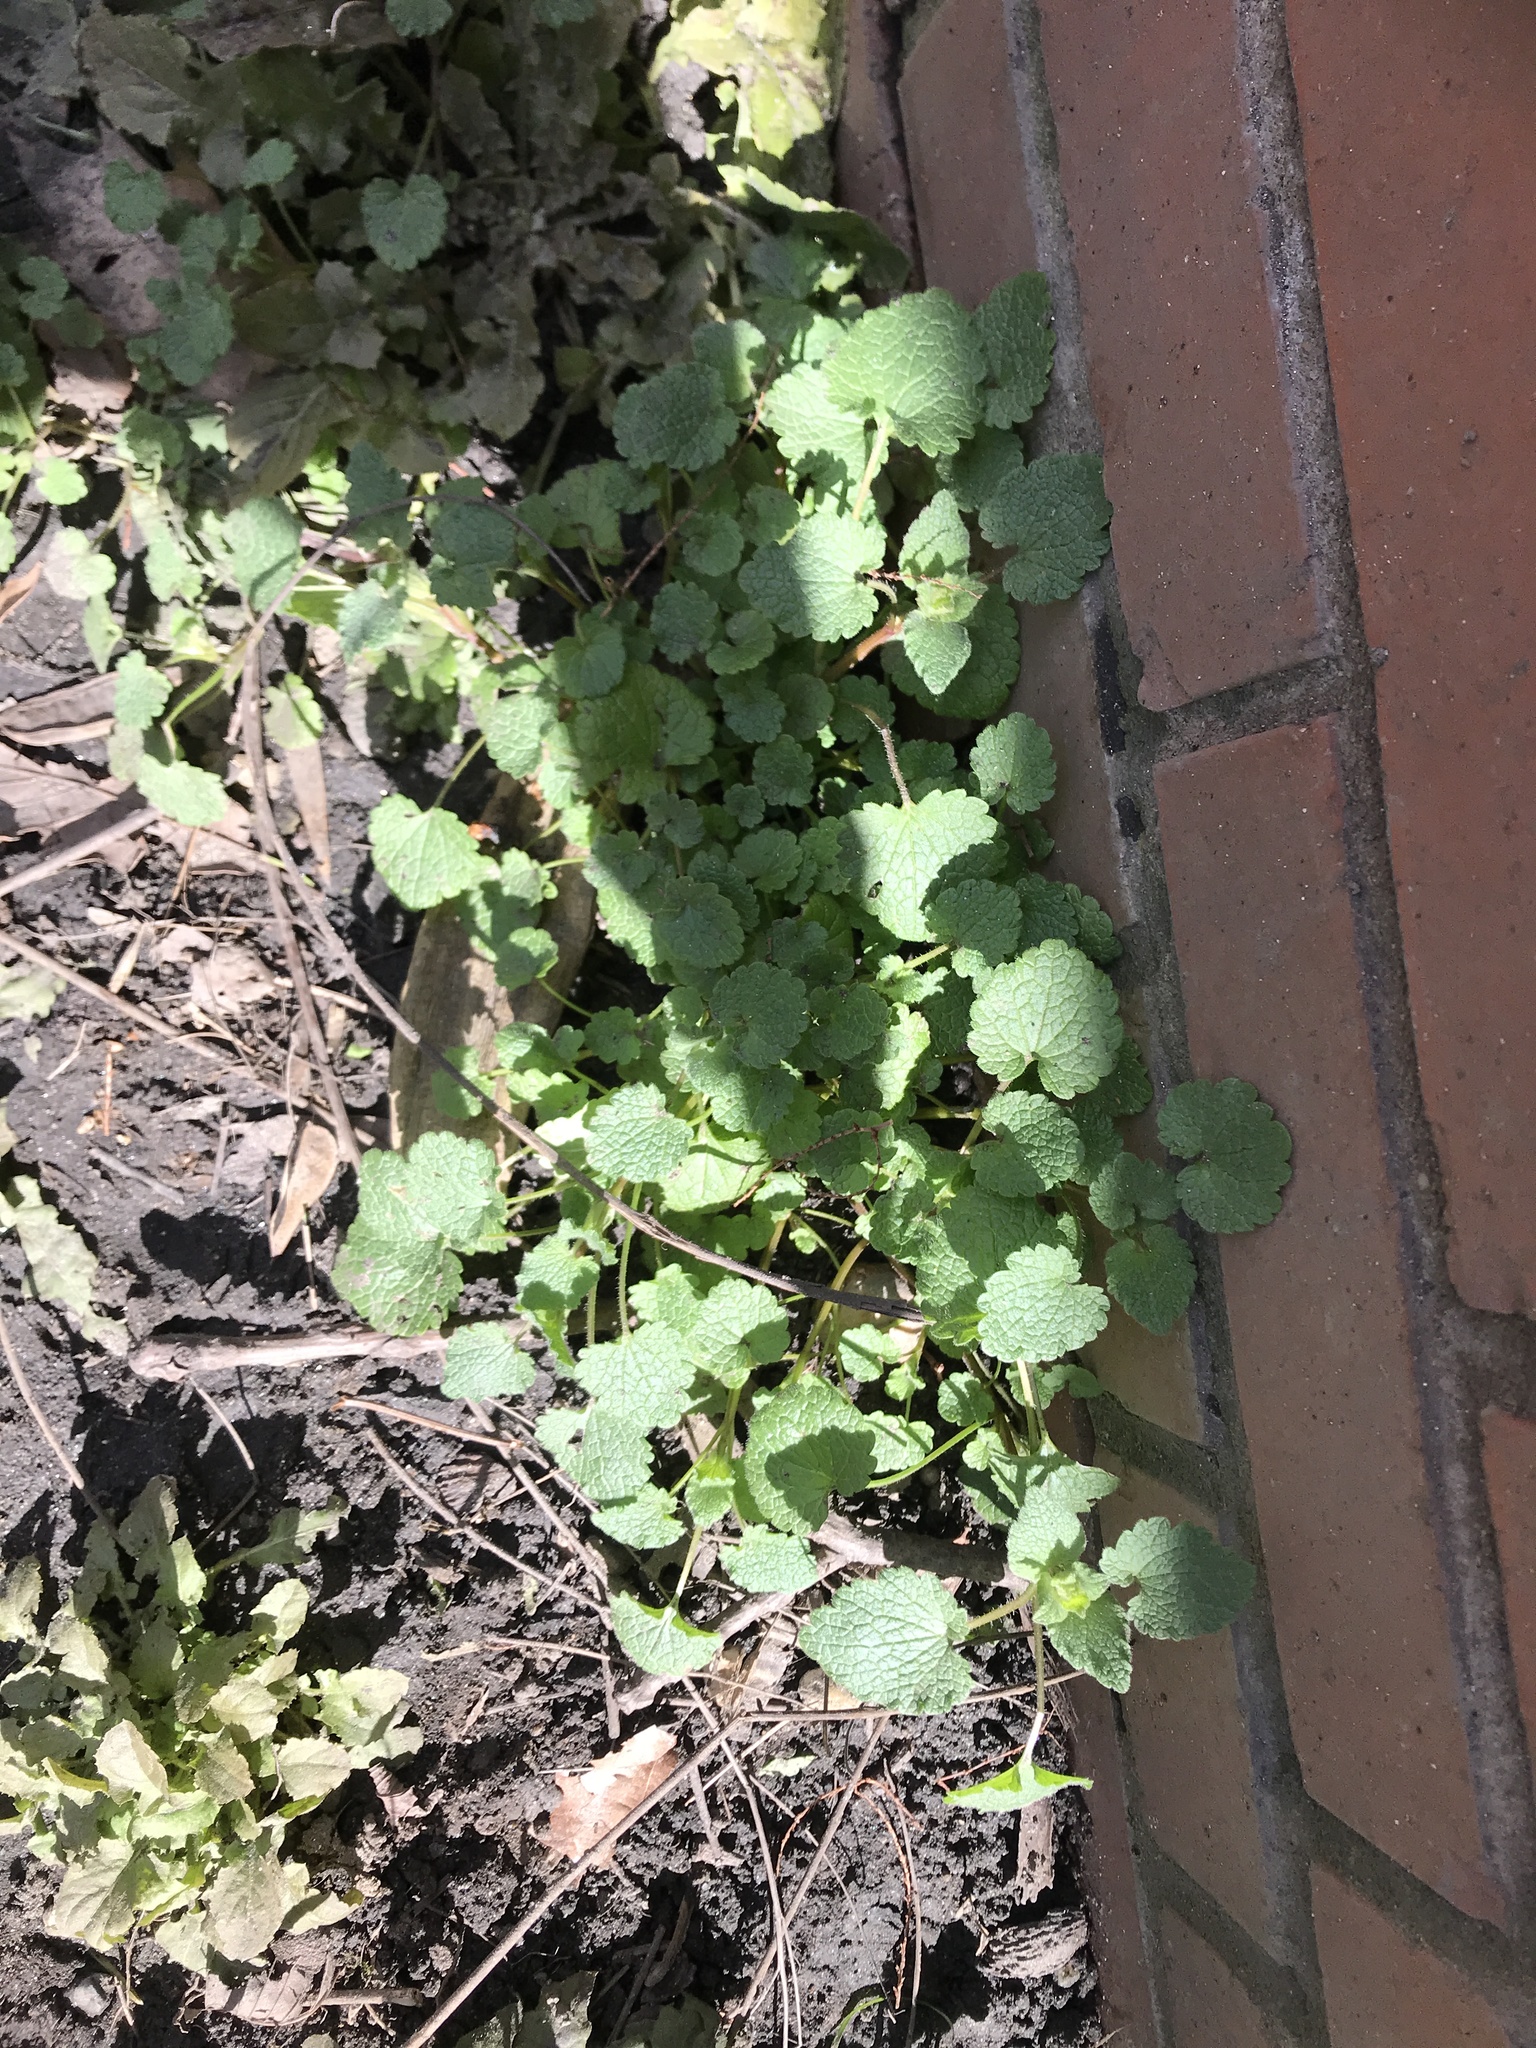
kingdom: Plantae
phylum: Tracheophyta
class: Magnoliopsida
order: Lamiales
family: Lamiaceae
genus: Lamium
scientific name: Lamium purpureum
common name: Red dead-nettle
